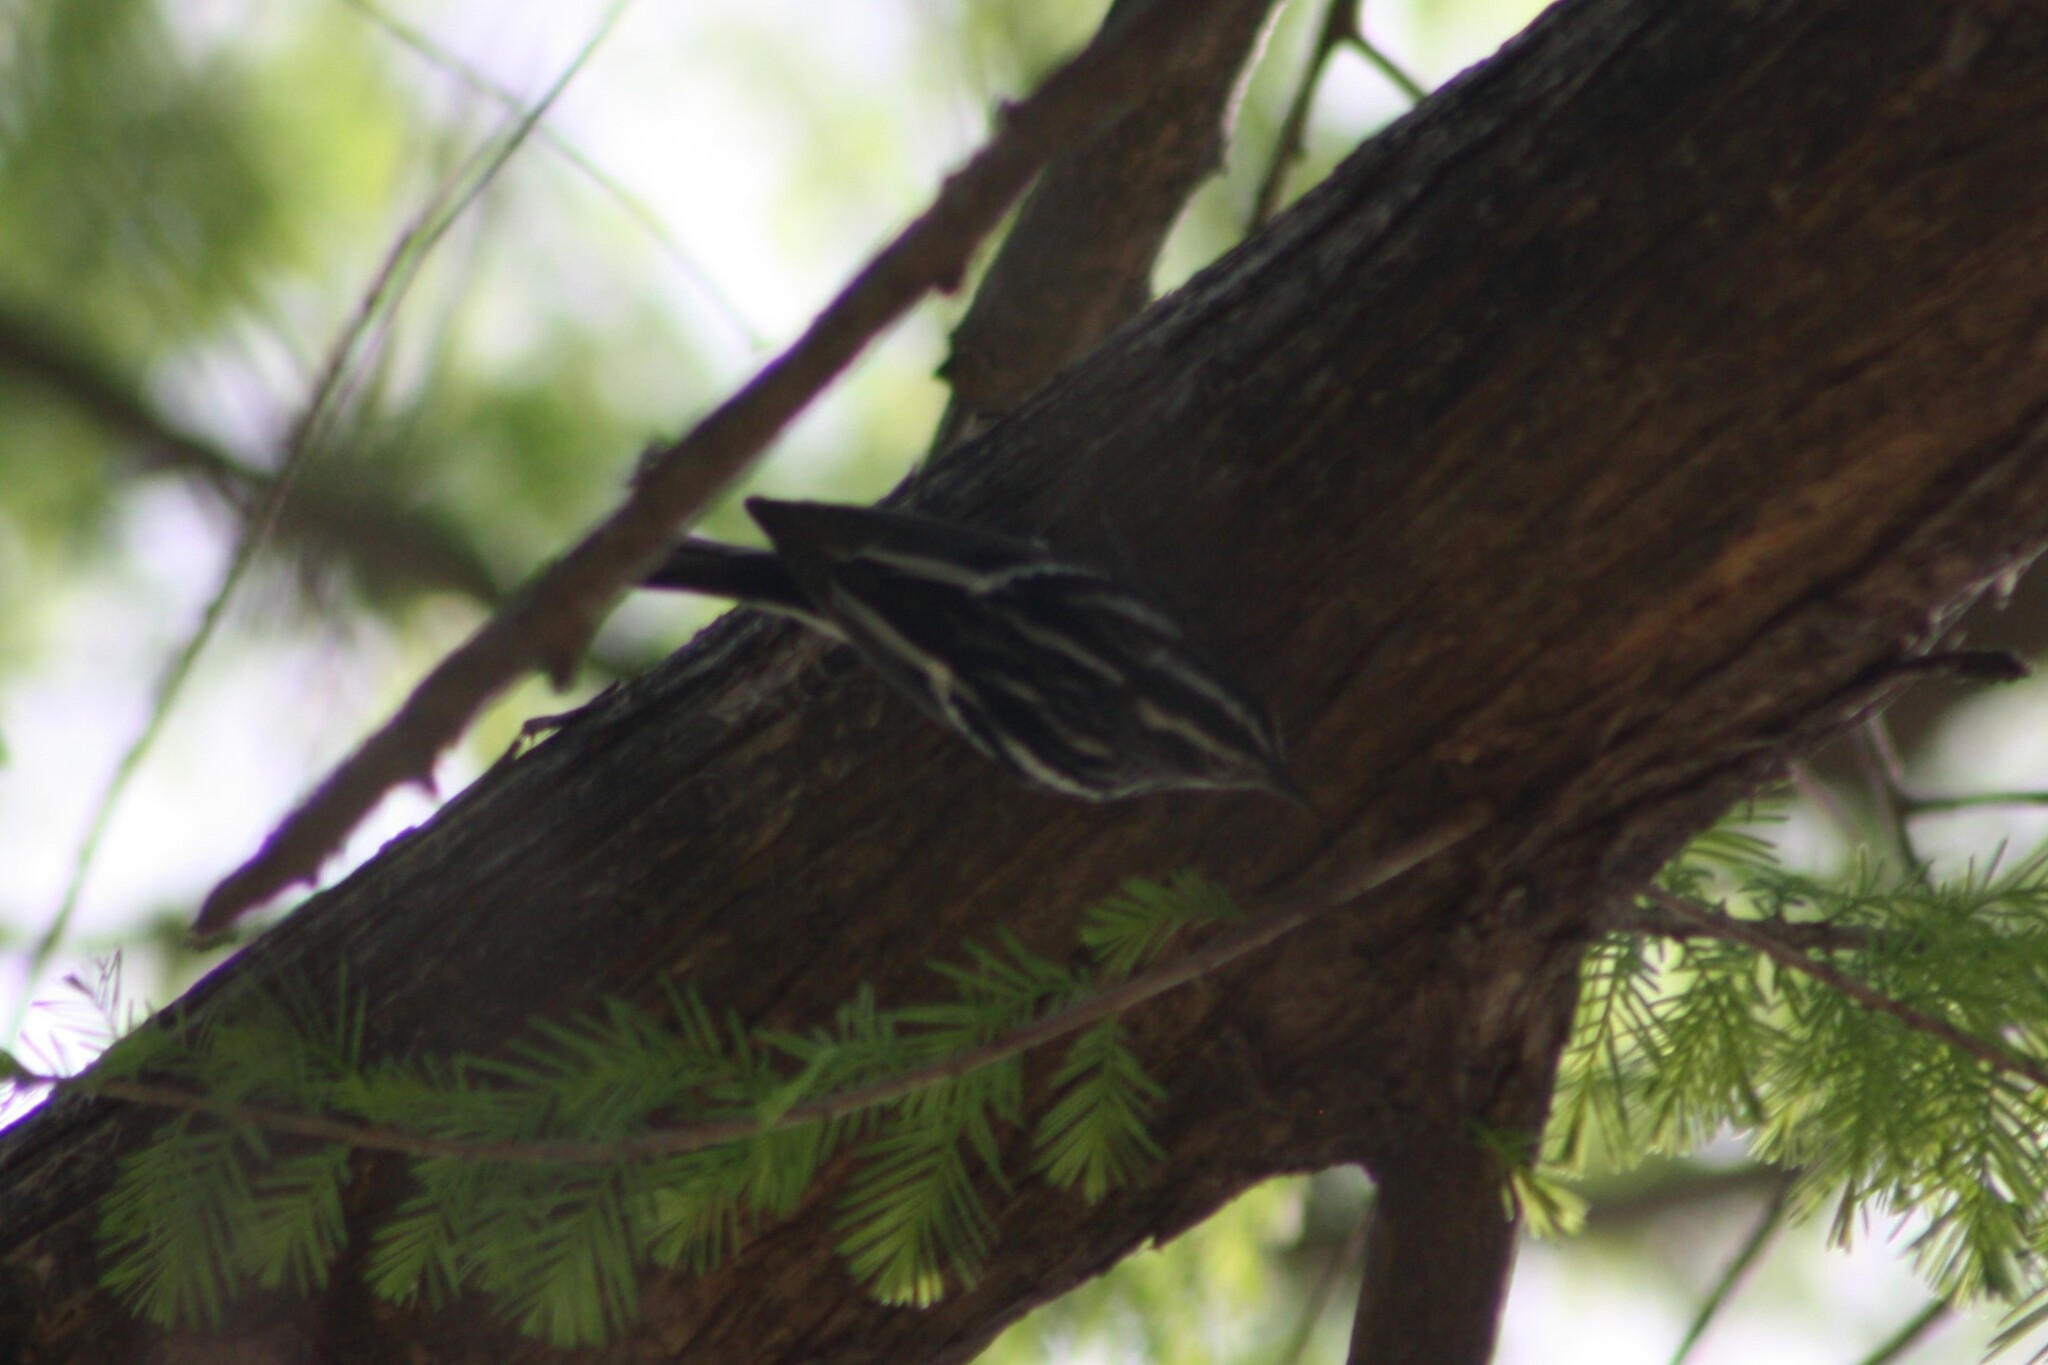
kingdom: Animalia
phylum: Chordata
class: Aves
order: Passeriformes
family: Parulidae
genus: Mniotilta
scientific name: Mniotilta varia
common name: Black-and-white warbler
